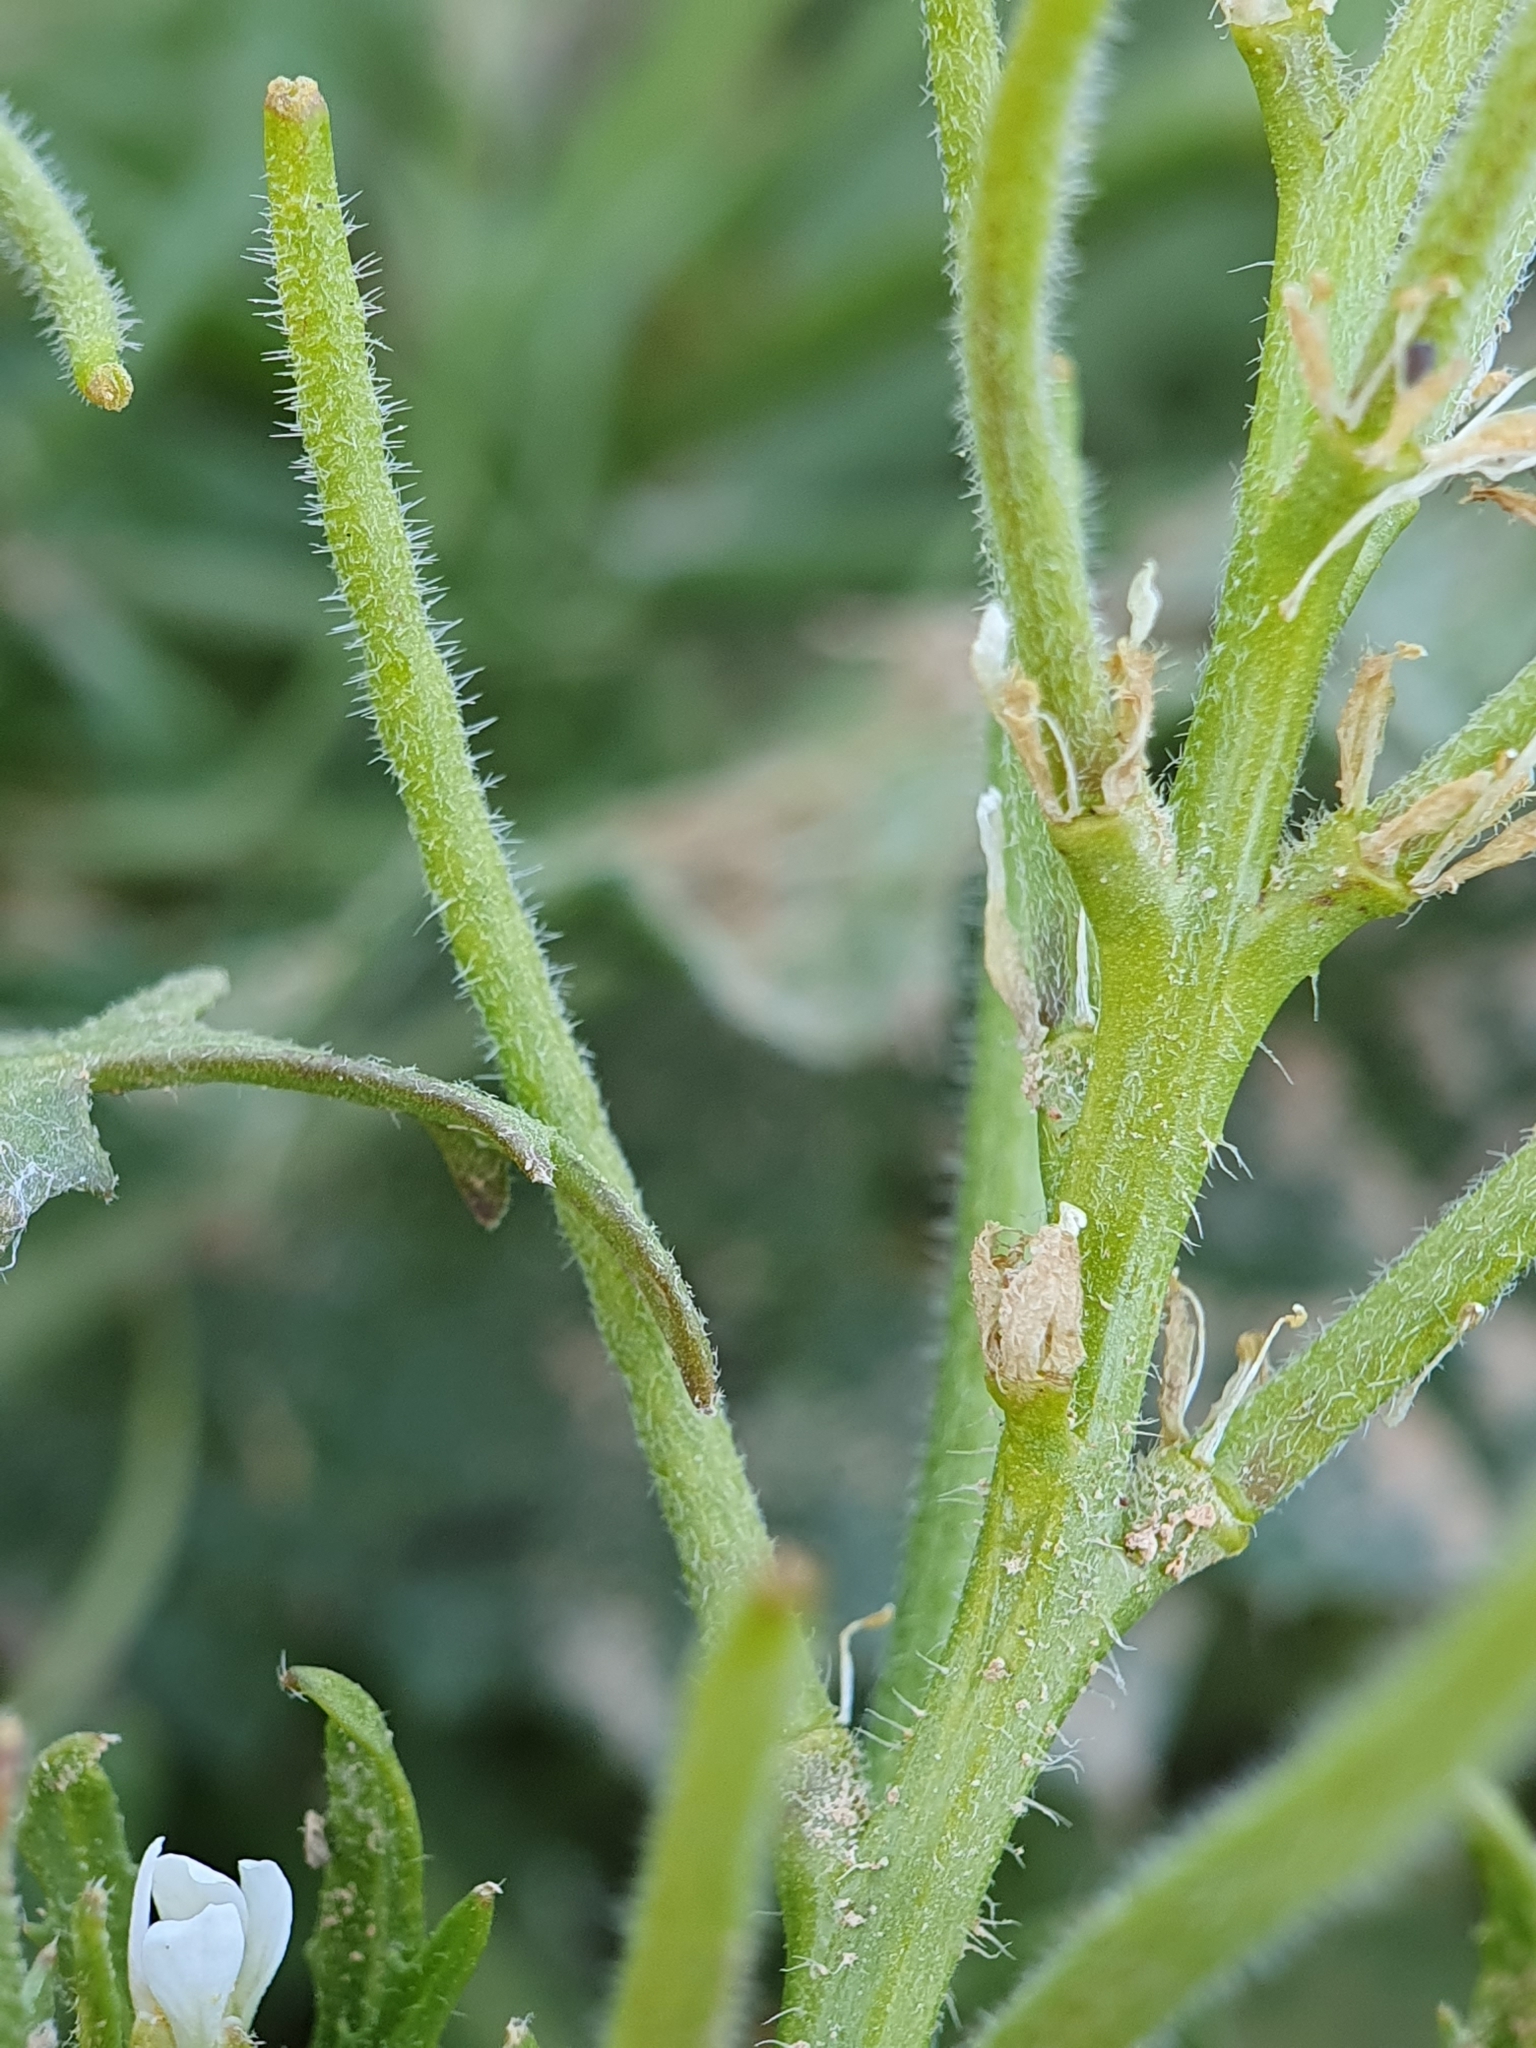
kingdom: Plantae
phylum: Tracheophyta
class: Magnoliopsida
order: Brassicales
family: Brassicaceae
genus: Neotorularia
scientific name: Neotorularia torulosa
